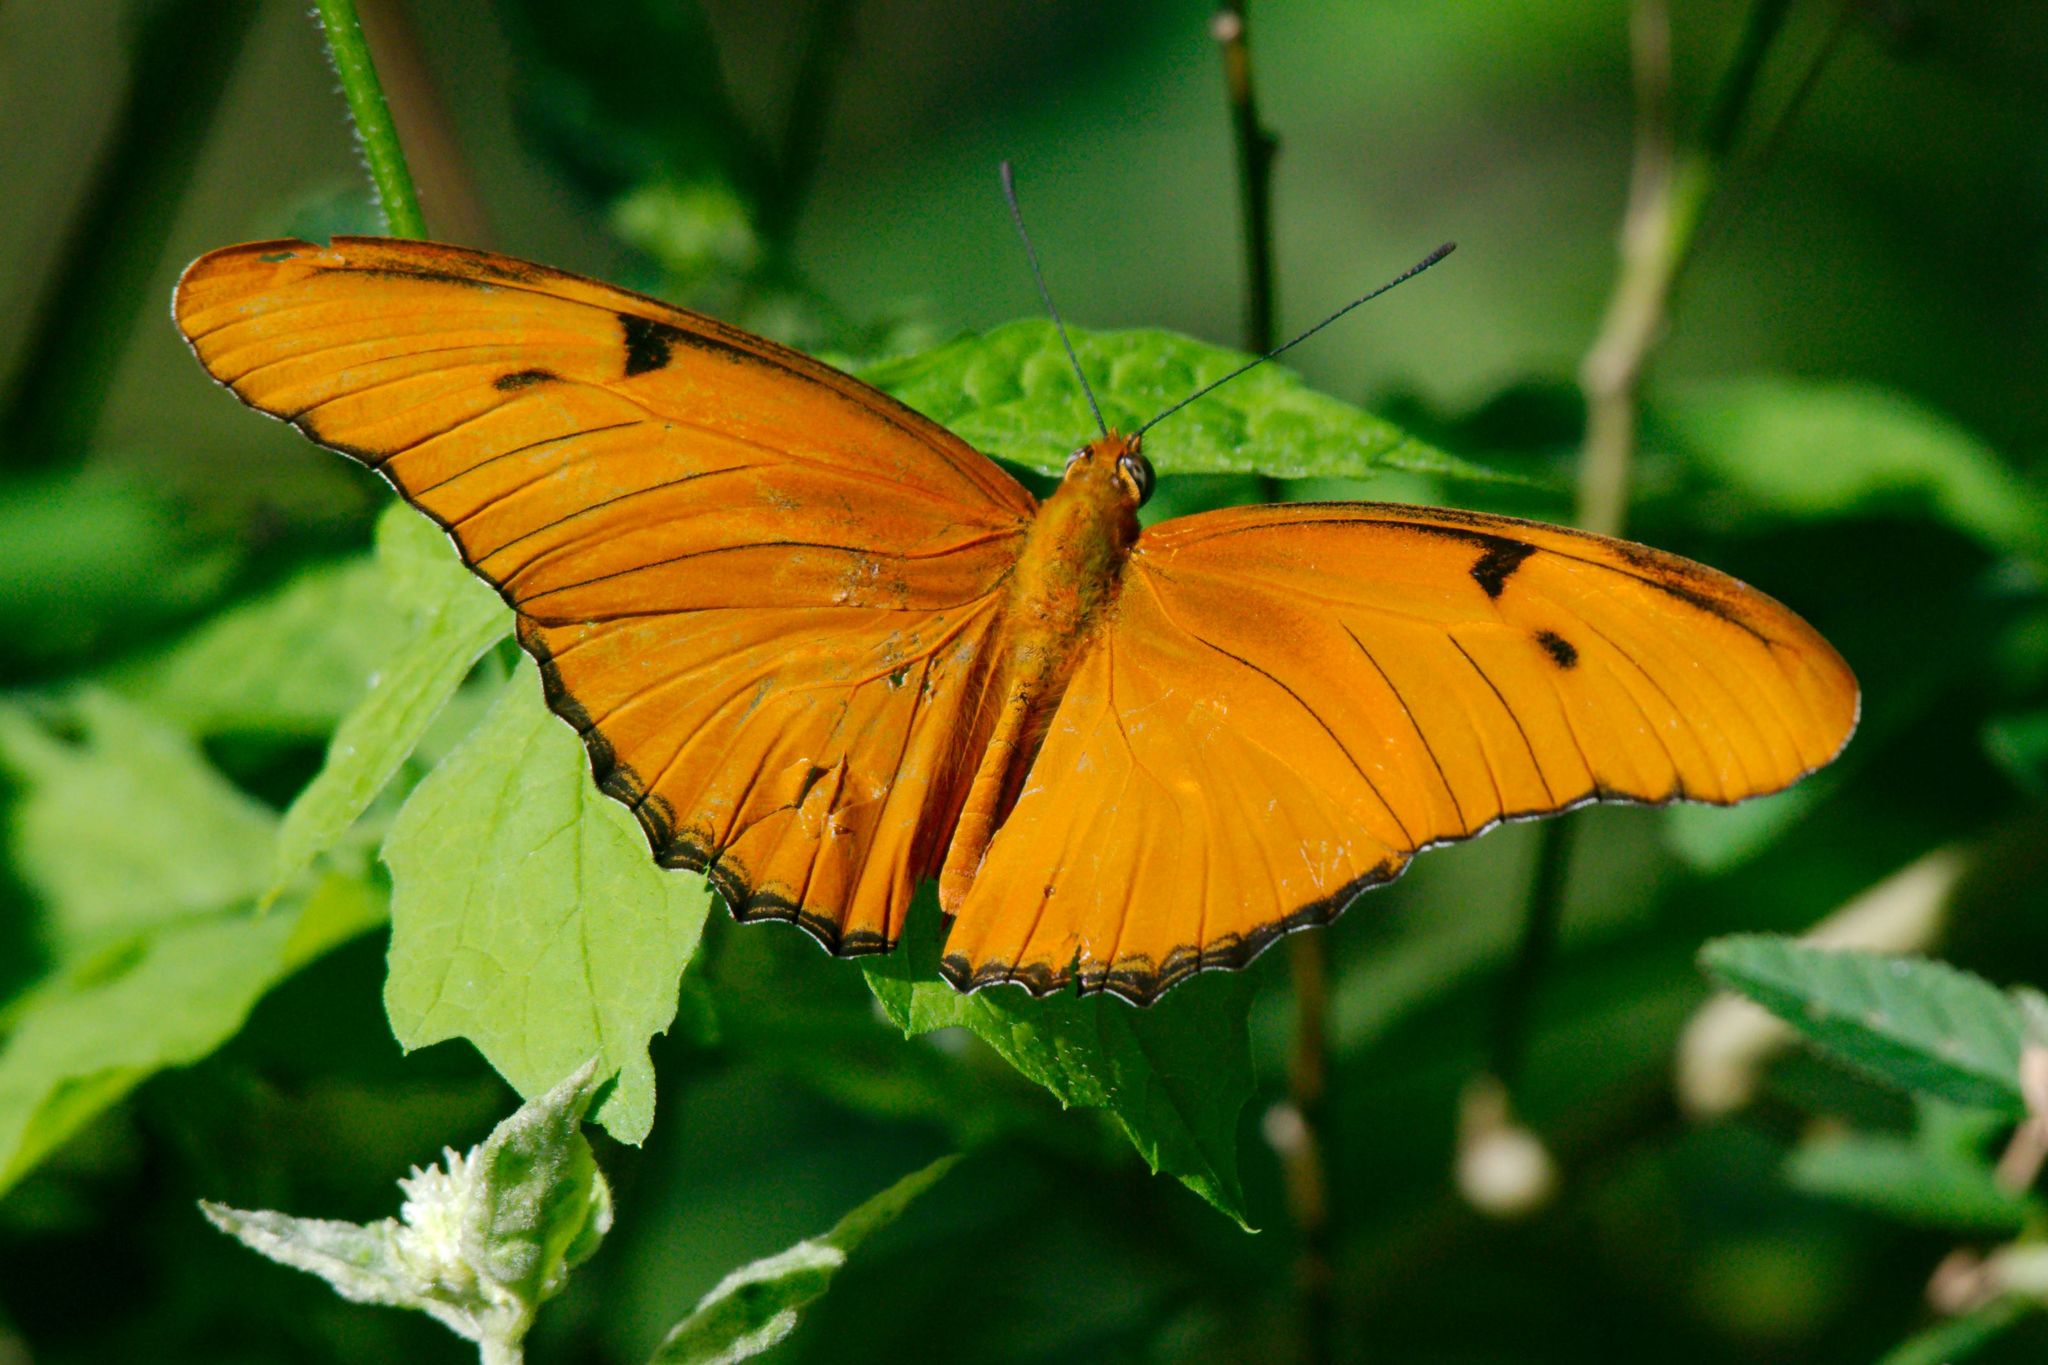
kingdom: Animalia
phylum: Arthropoda
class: Insecta
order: Lepidoptera
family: Nymphalidae
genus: Dryas
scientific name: Dryas iulia
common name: Flambeau
